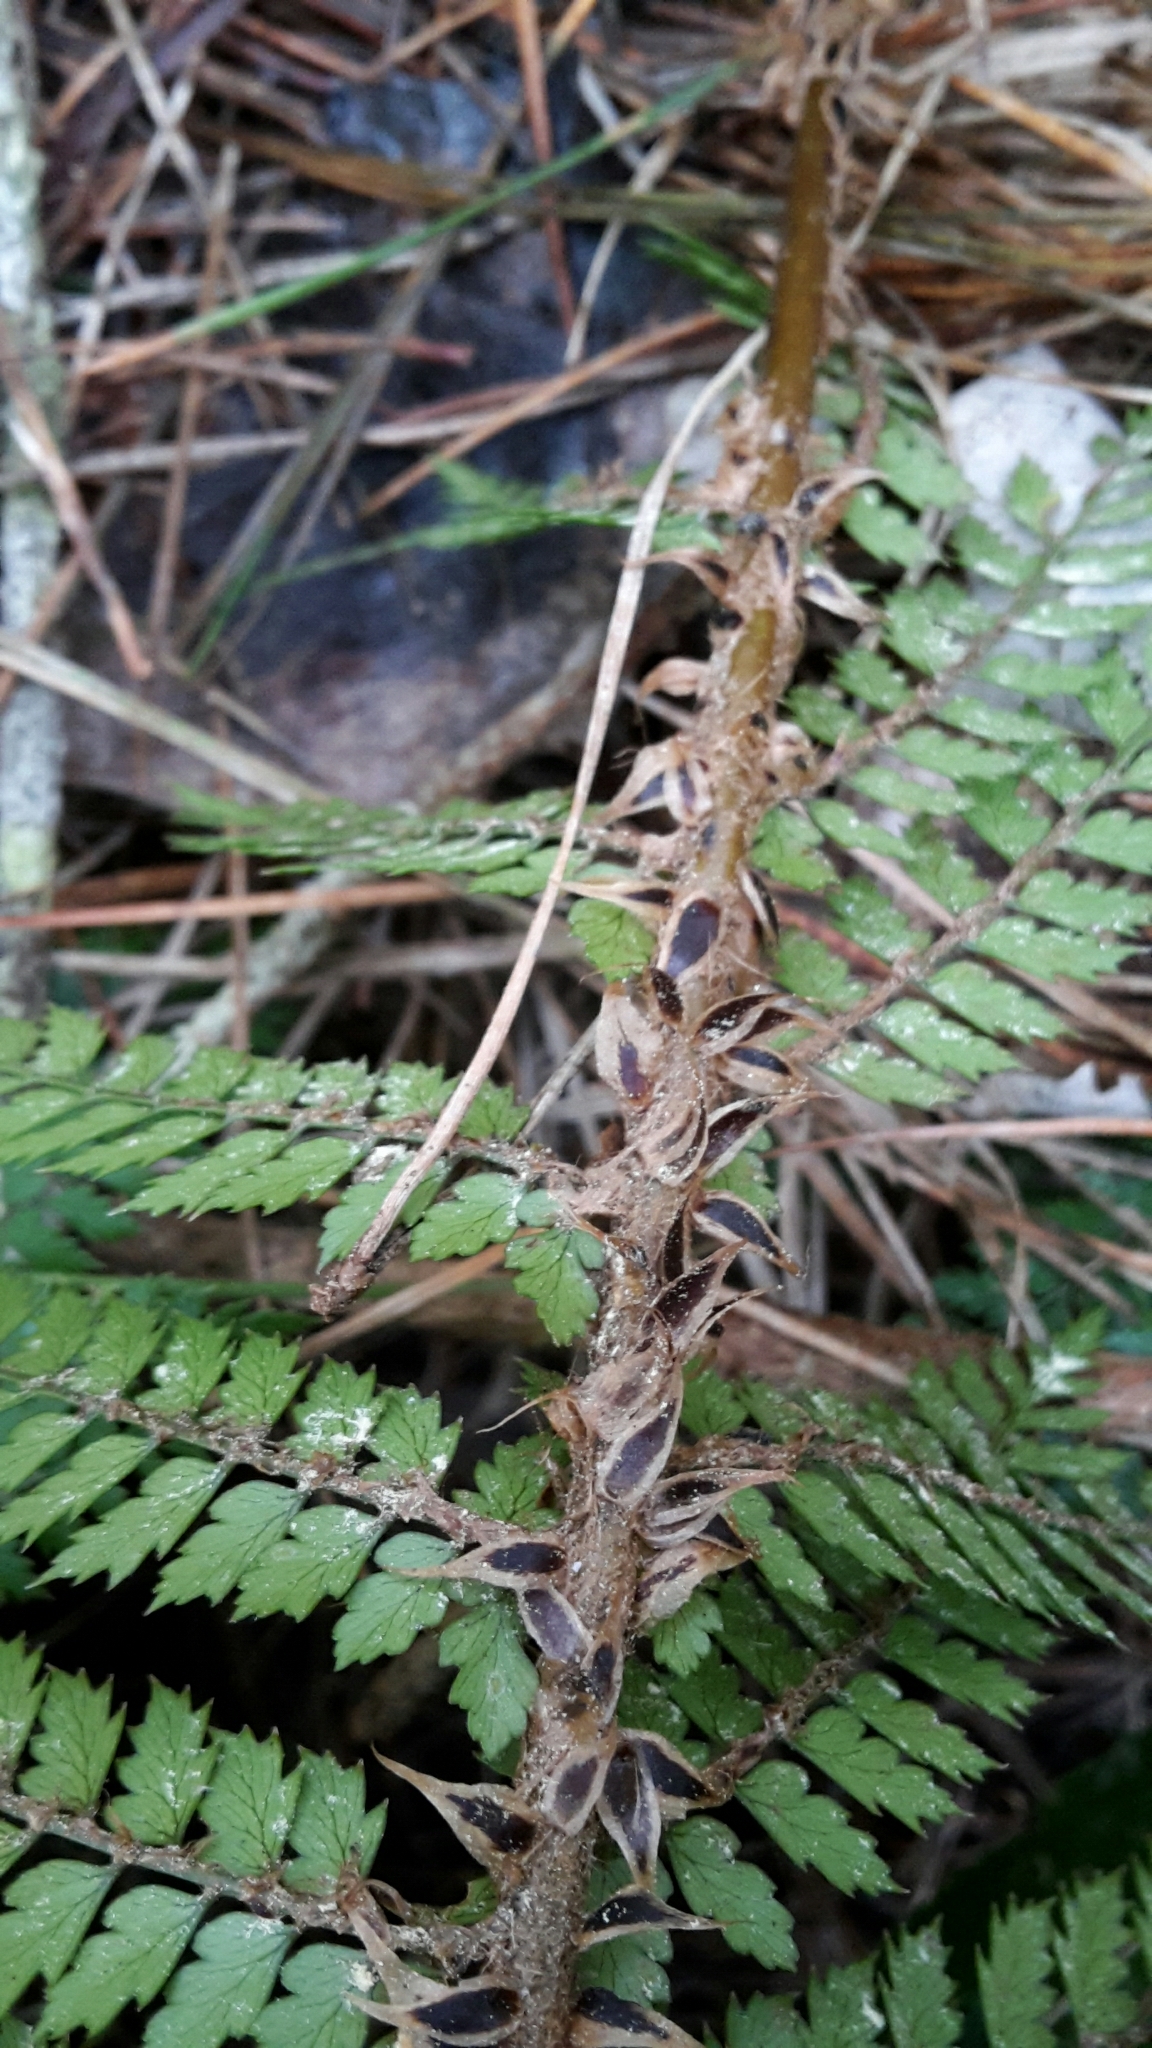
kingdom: Plantae
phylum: Tracheophyta
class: Polypodiopsida
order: Polypodiales
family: Dryopteridaceae
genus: Polystichum
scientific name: Polystichum vestitum
